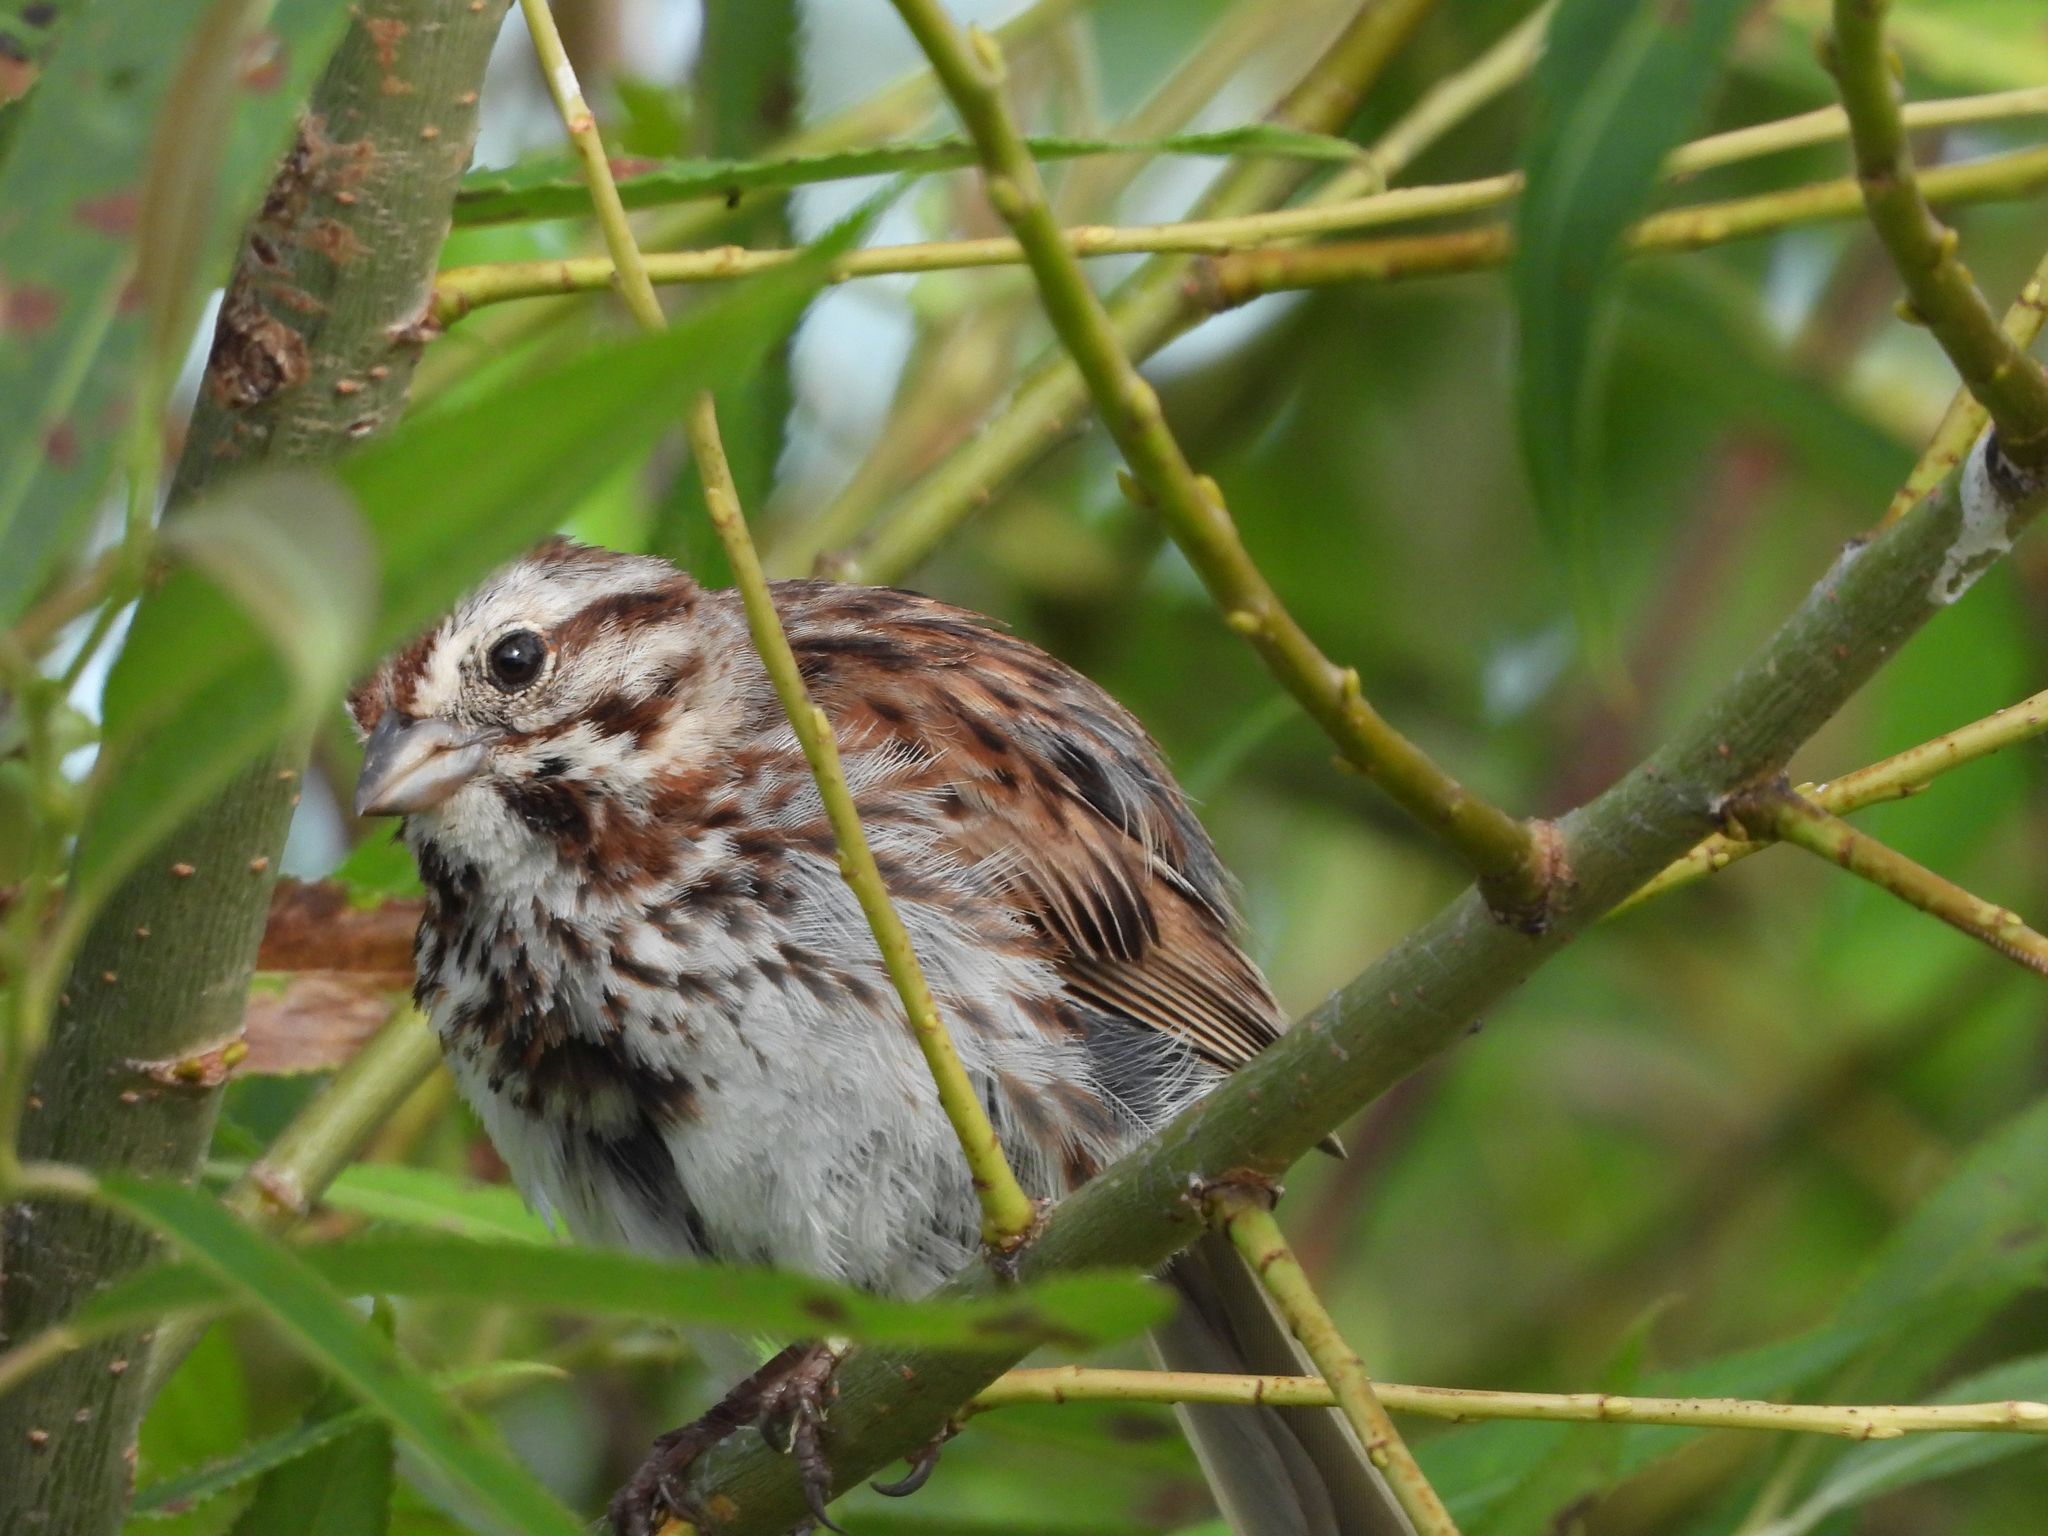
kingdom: Animalia
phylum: Chordata
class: Aves
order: Passeriformes
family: Passerellidae
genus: Melospiza
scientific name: Melospiza melodia
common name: Song sparrow
